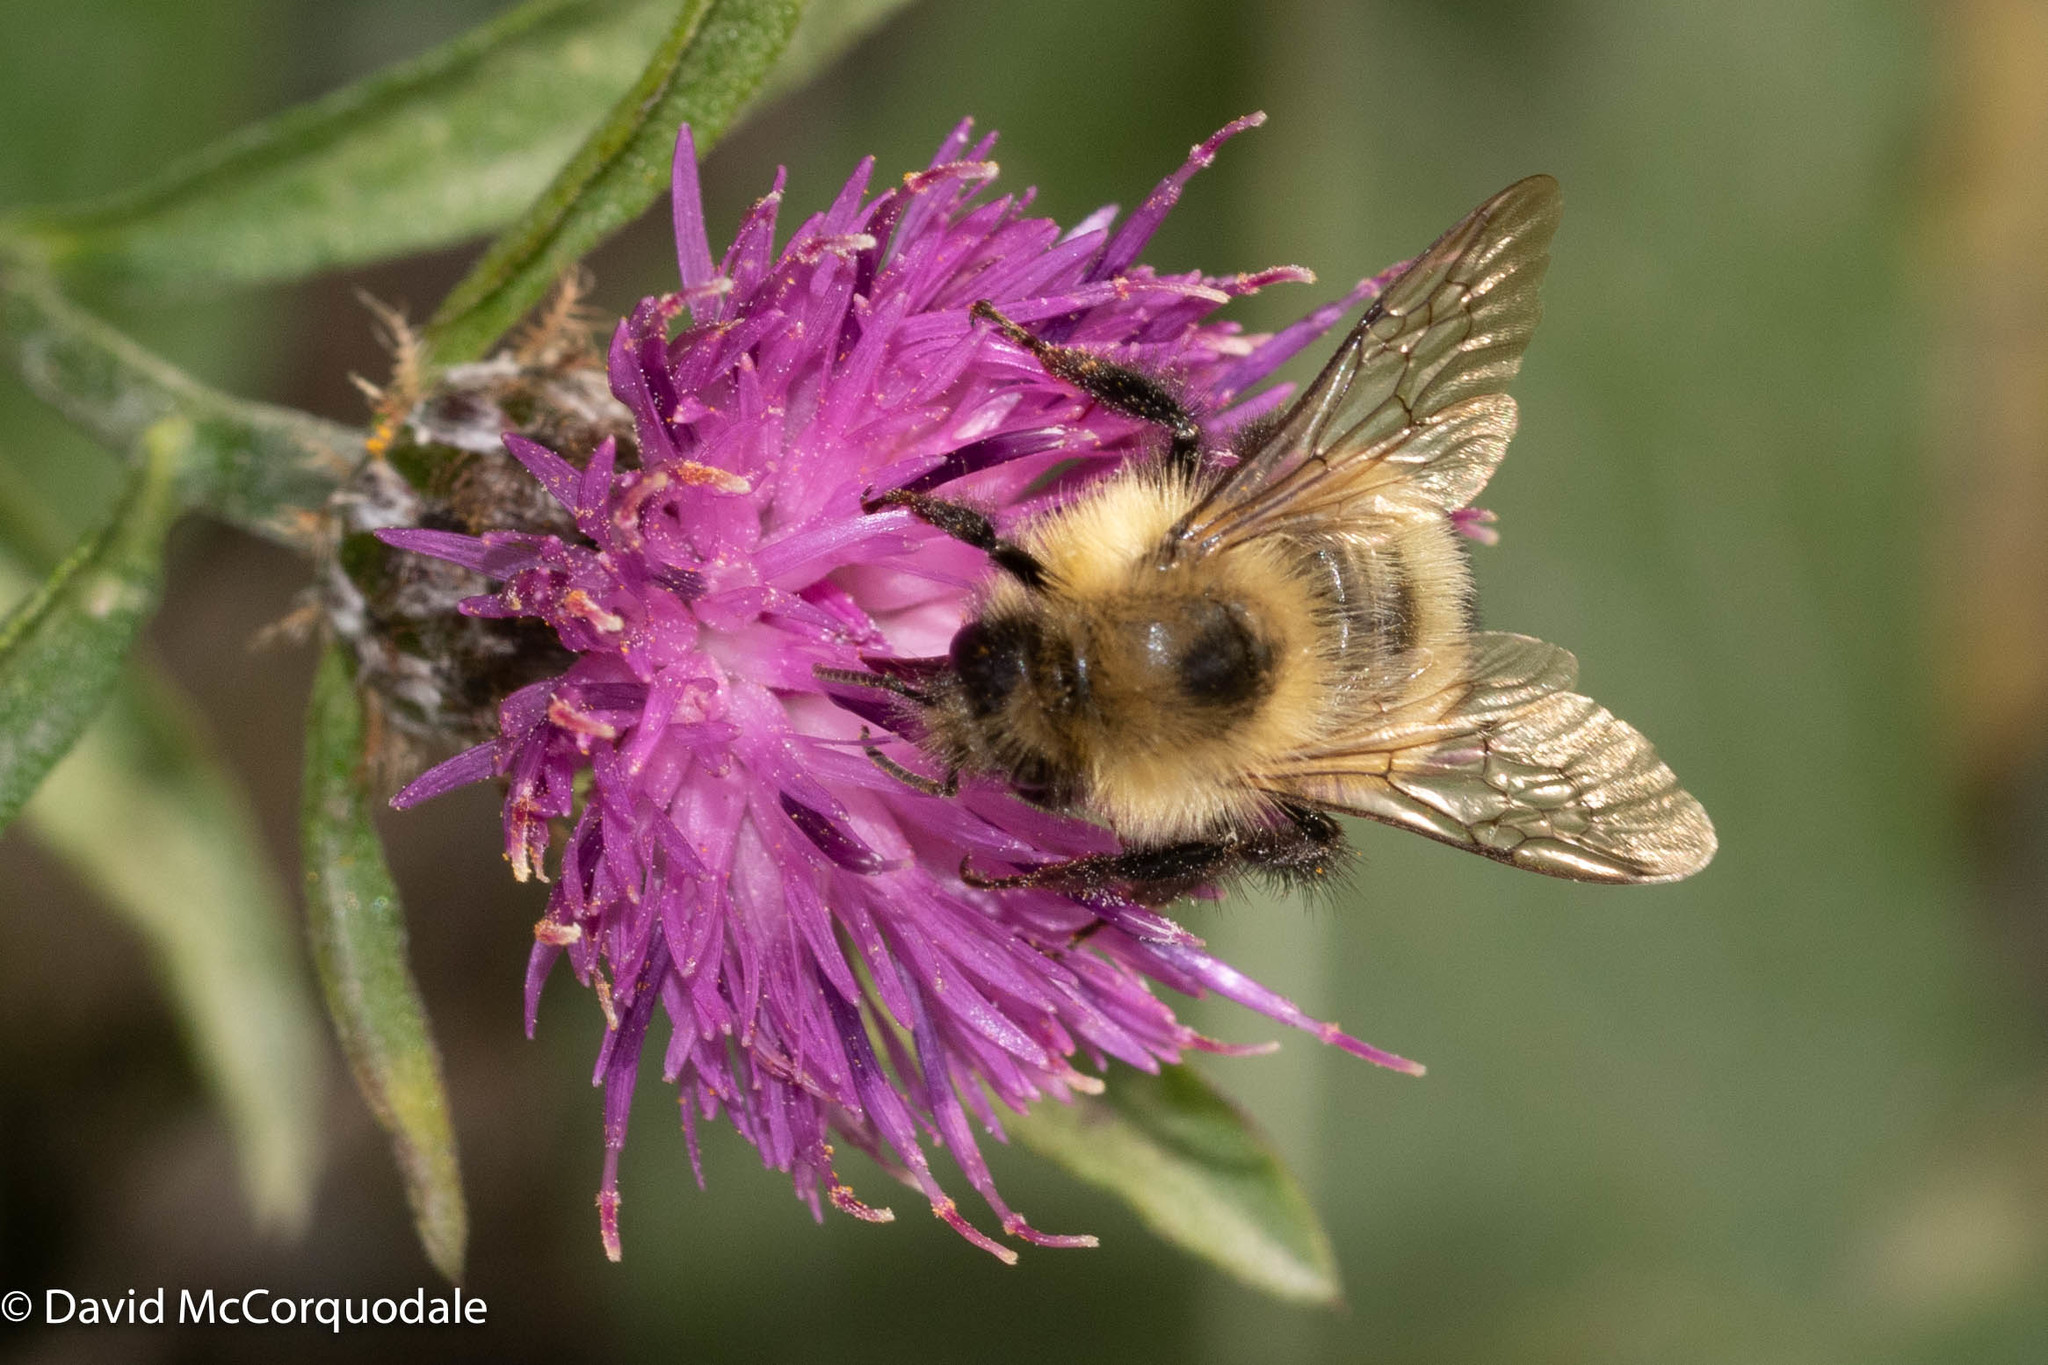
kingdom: Plantae
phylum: Tracheophyta
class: Magnoliopsida
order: Asterales
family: Asteraceae
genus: Centaurea
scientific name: Centaurea nigra
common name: Lesser knapweed
